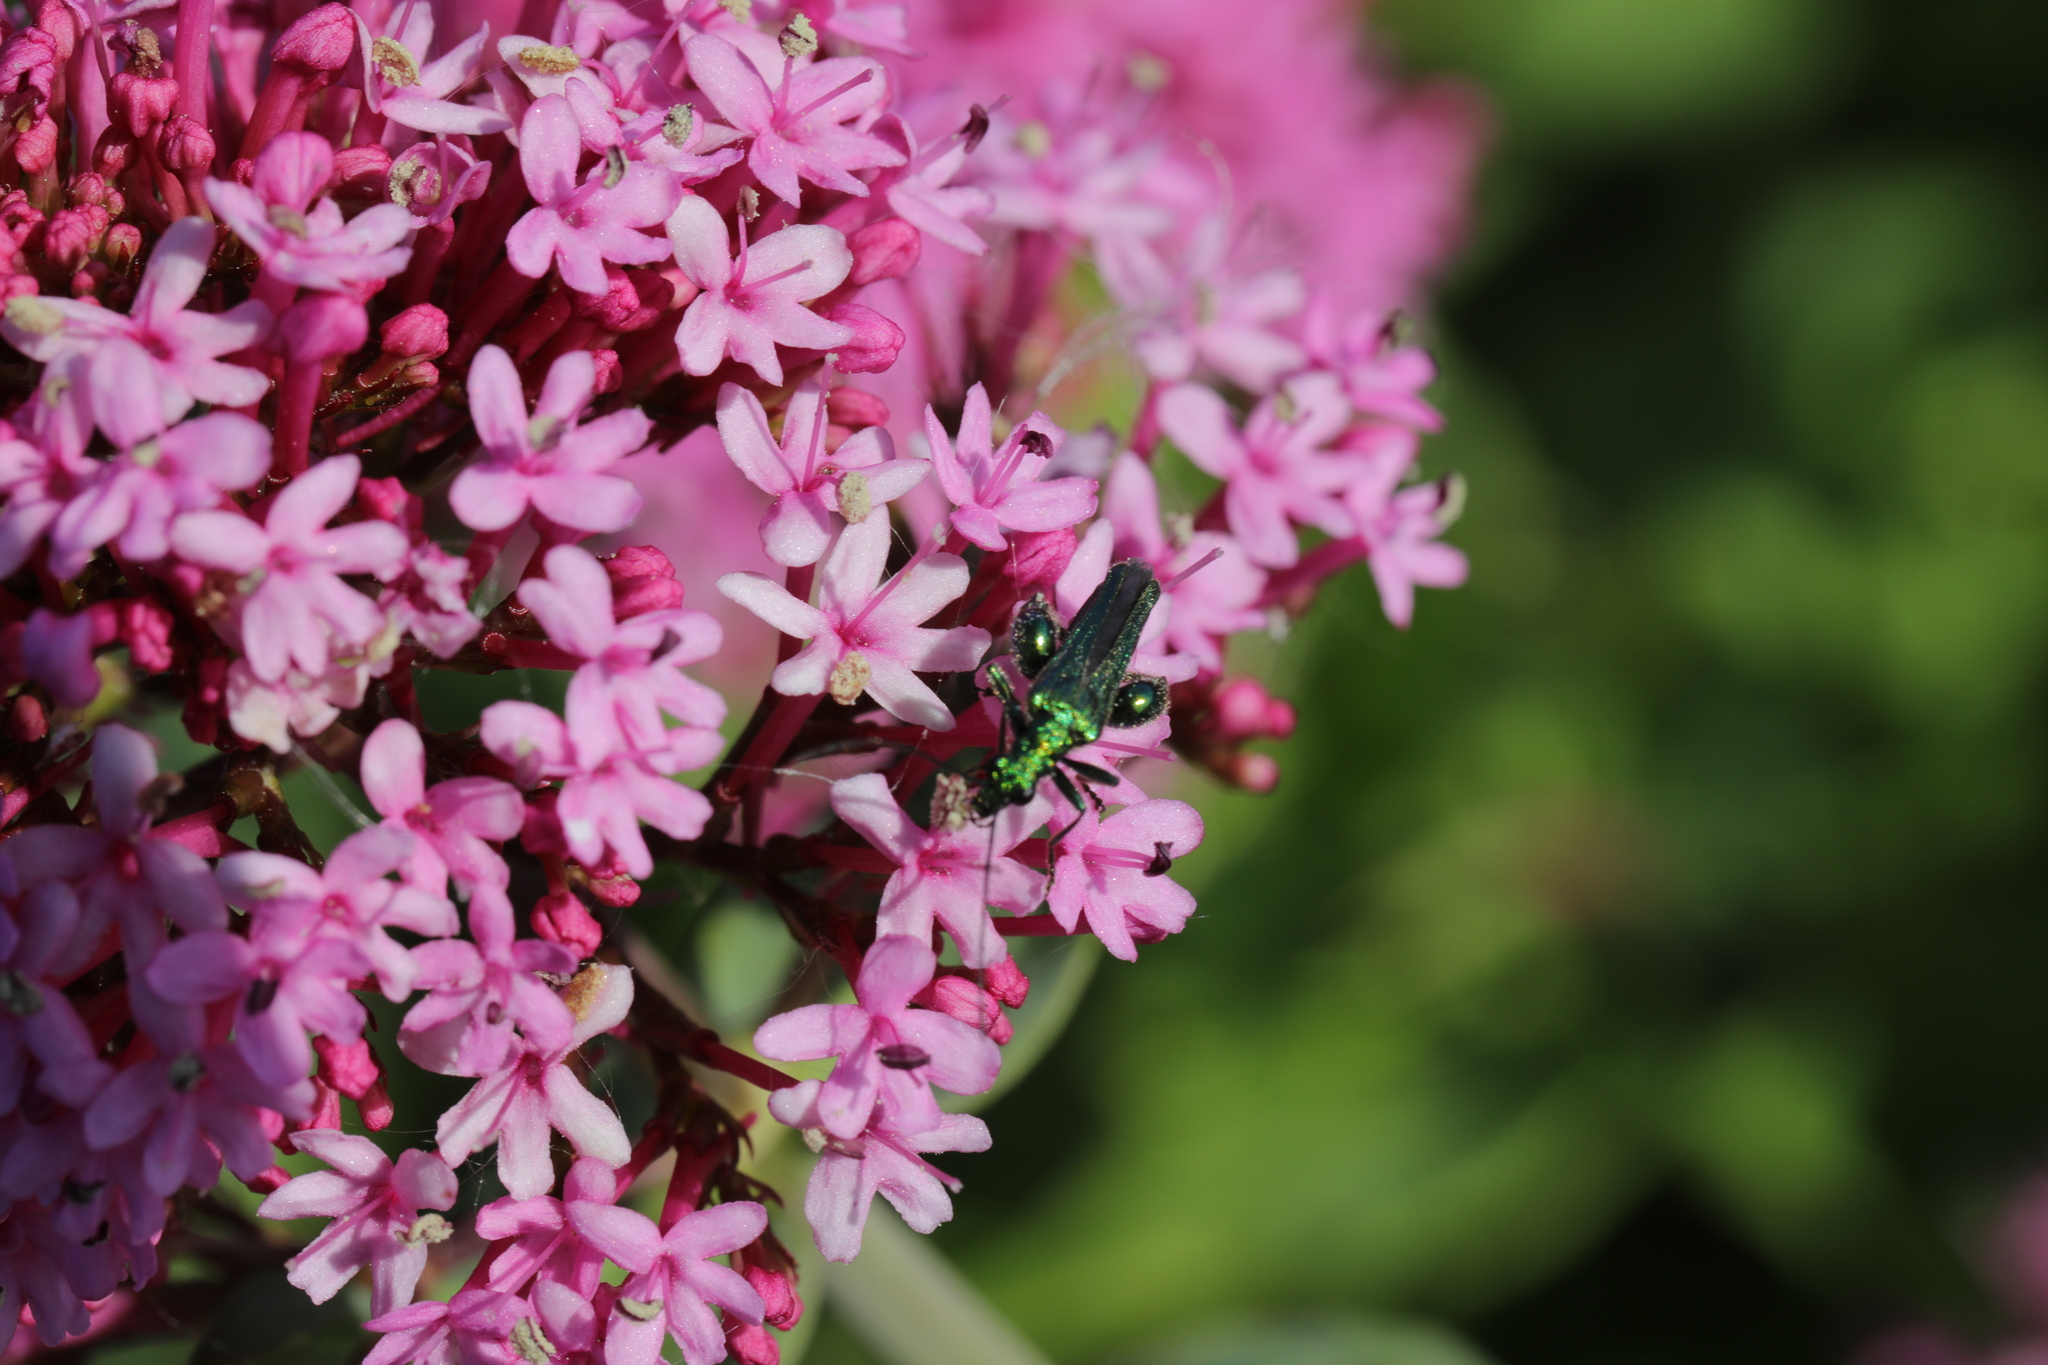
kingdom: Animalia
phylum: Arthropoda
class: Insecta
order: Coleoptera
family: Oedemeridae
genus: Oedemera
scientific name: Oedemera nobilis
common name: Swollen-thighed beetle
